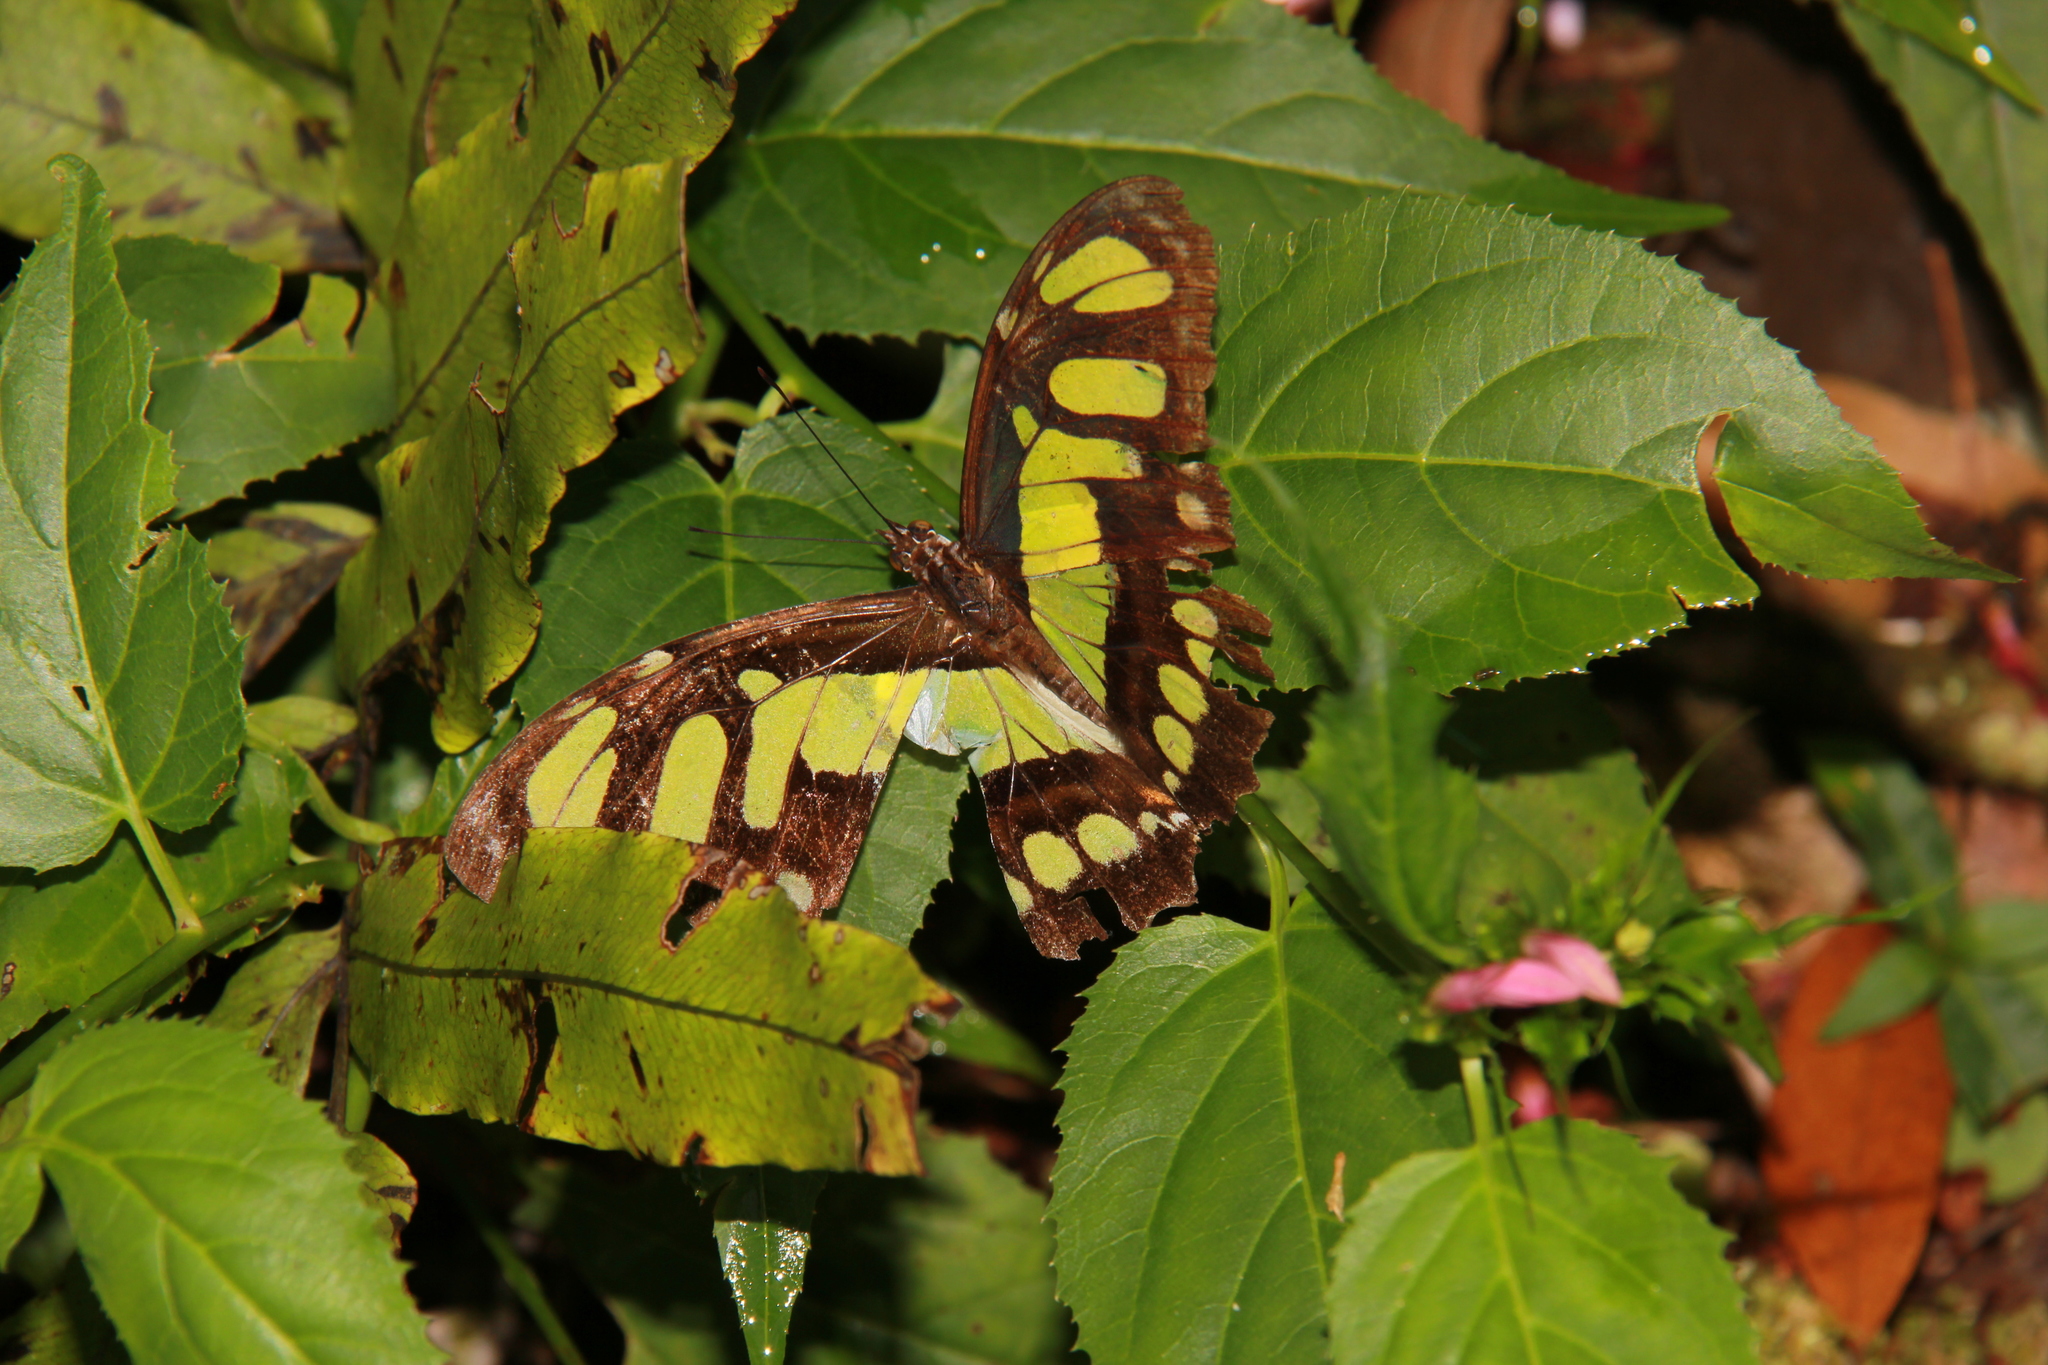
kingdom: Animalia
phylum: Arthropoda
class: Insecta
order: Lepidoptera
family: Nymphalidae
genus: Siproeta
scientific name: Siproeta stelenes
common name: Malachite
